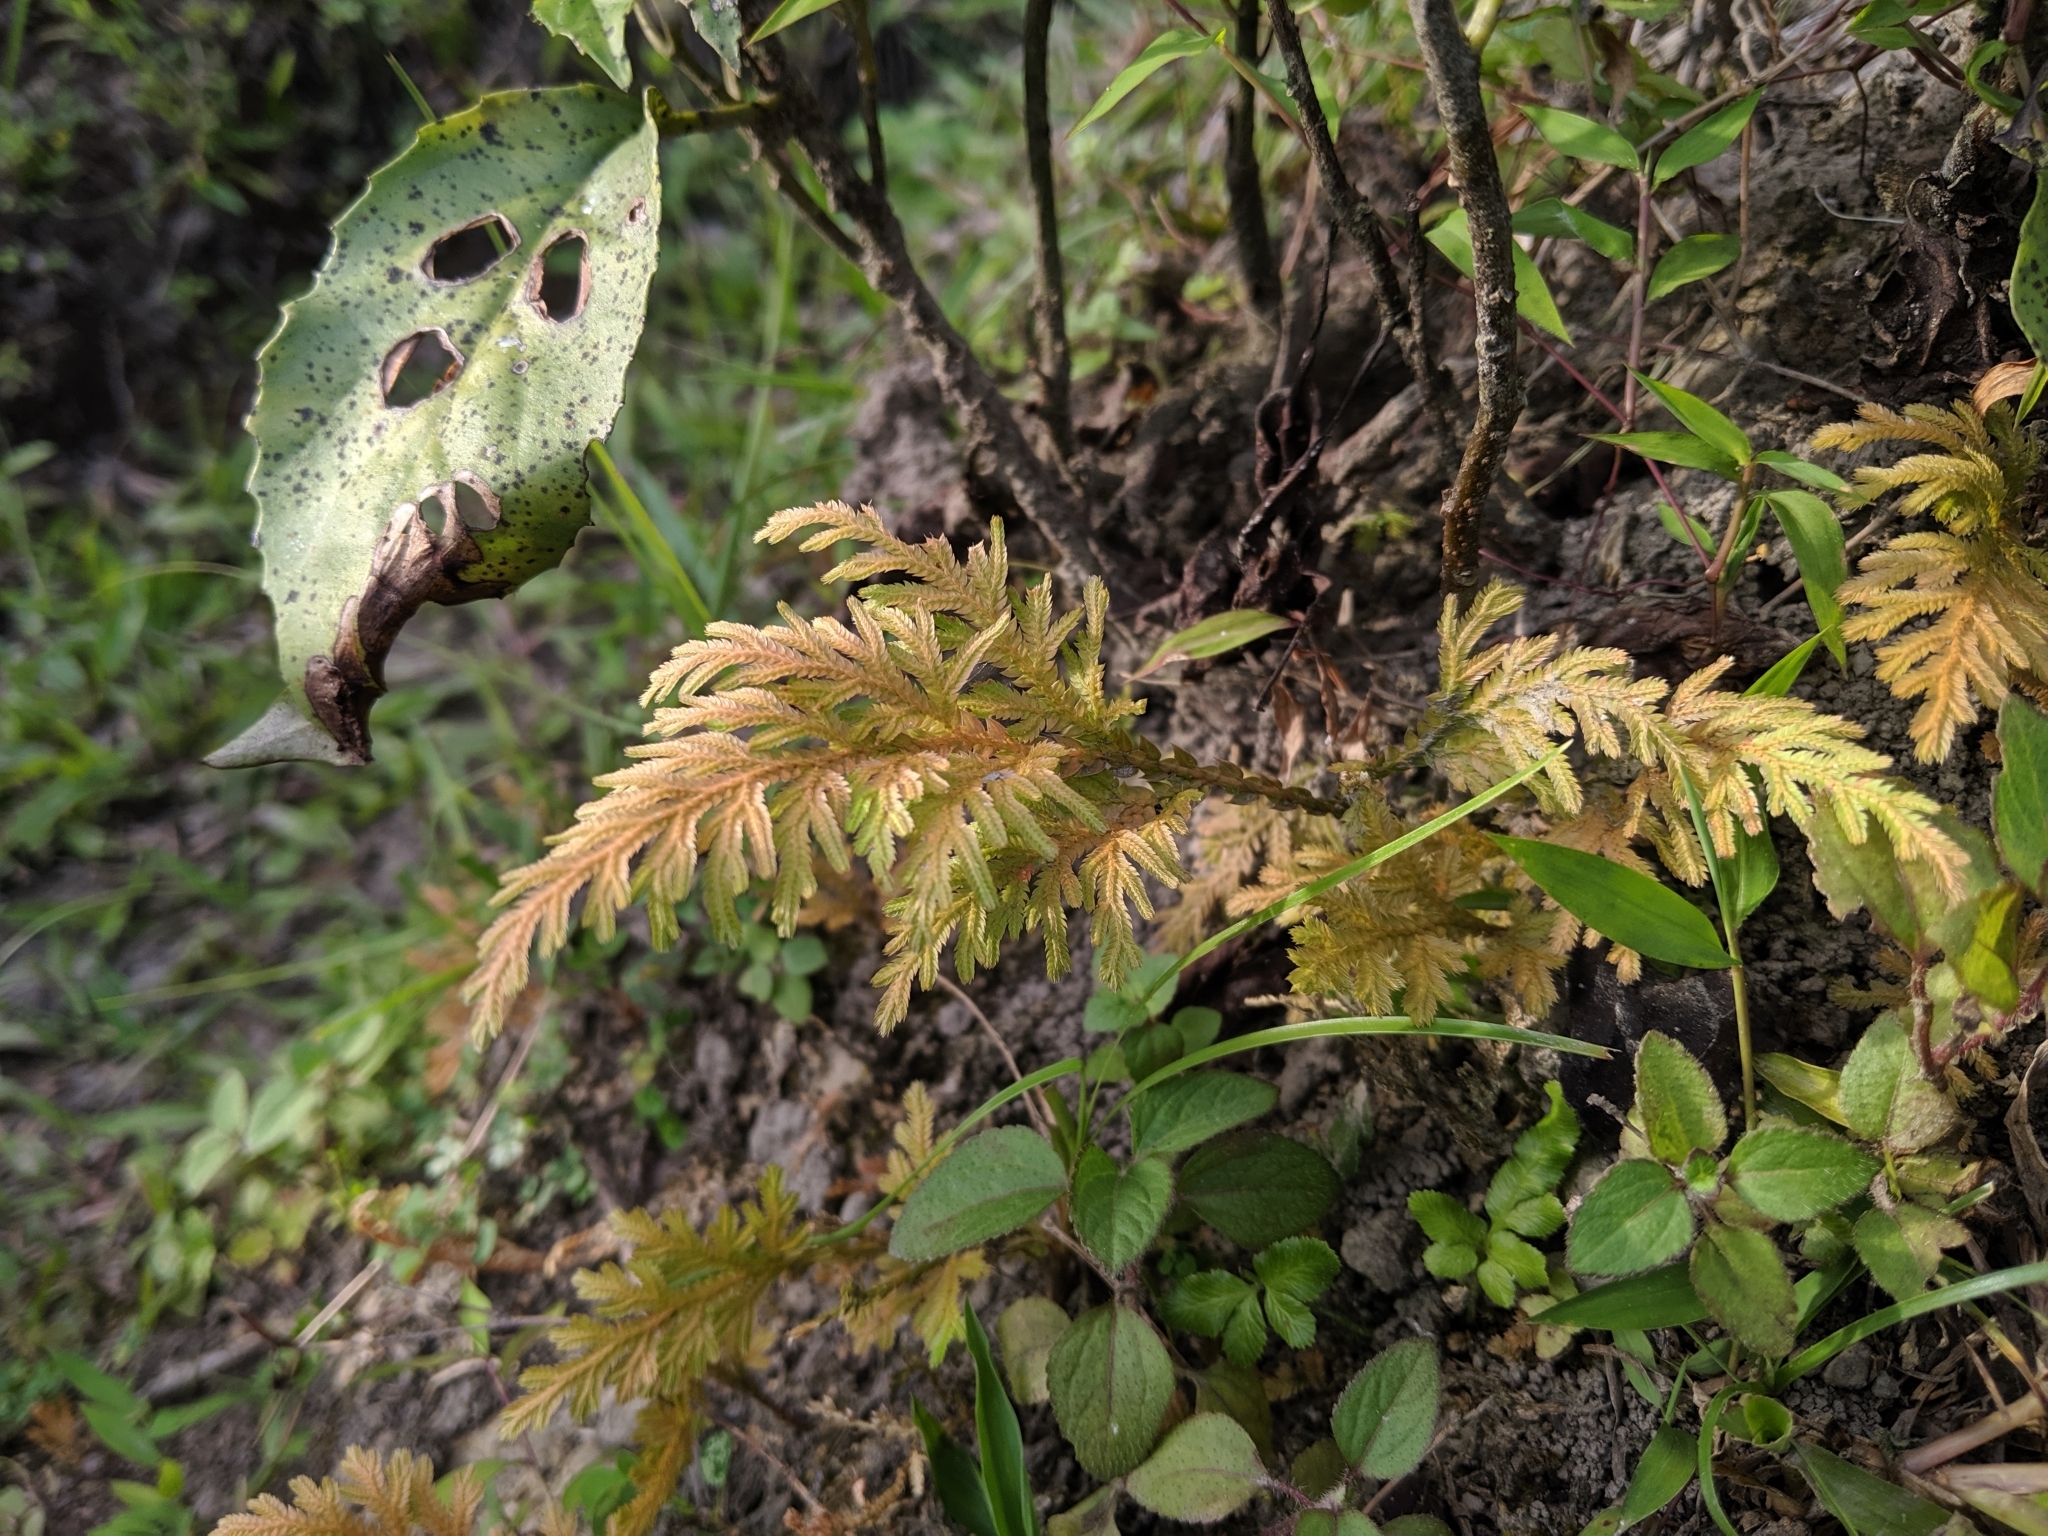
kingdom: Plantae
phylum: Tracheophyta
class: Lycopodiopsida
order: Selaginellales
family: Selaginellaceae
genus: Selaginella
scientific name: Selaginella moellendorffii
